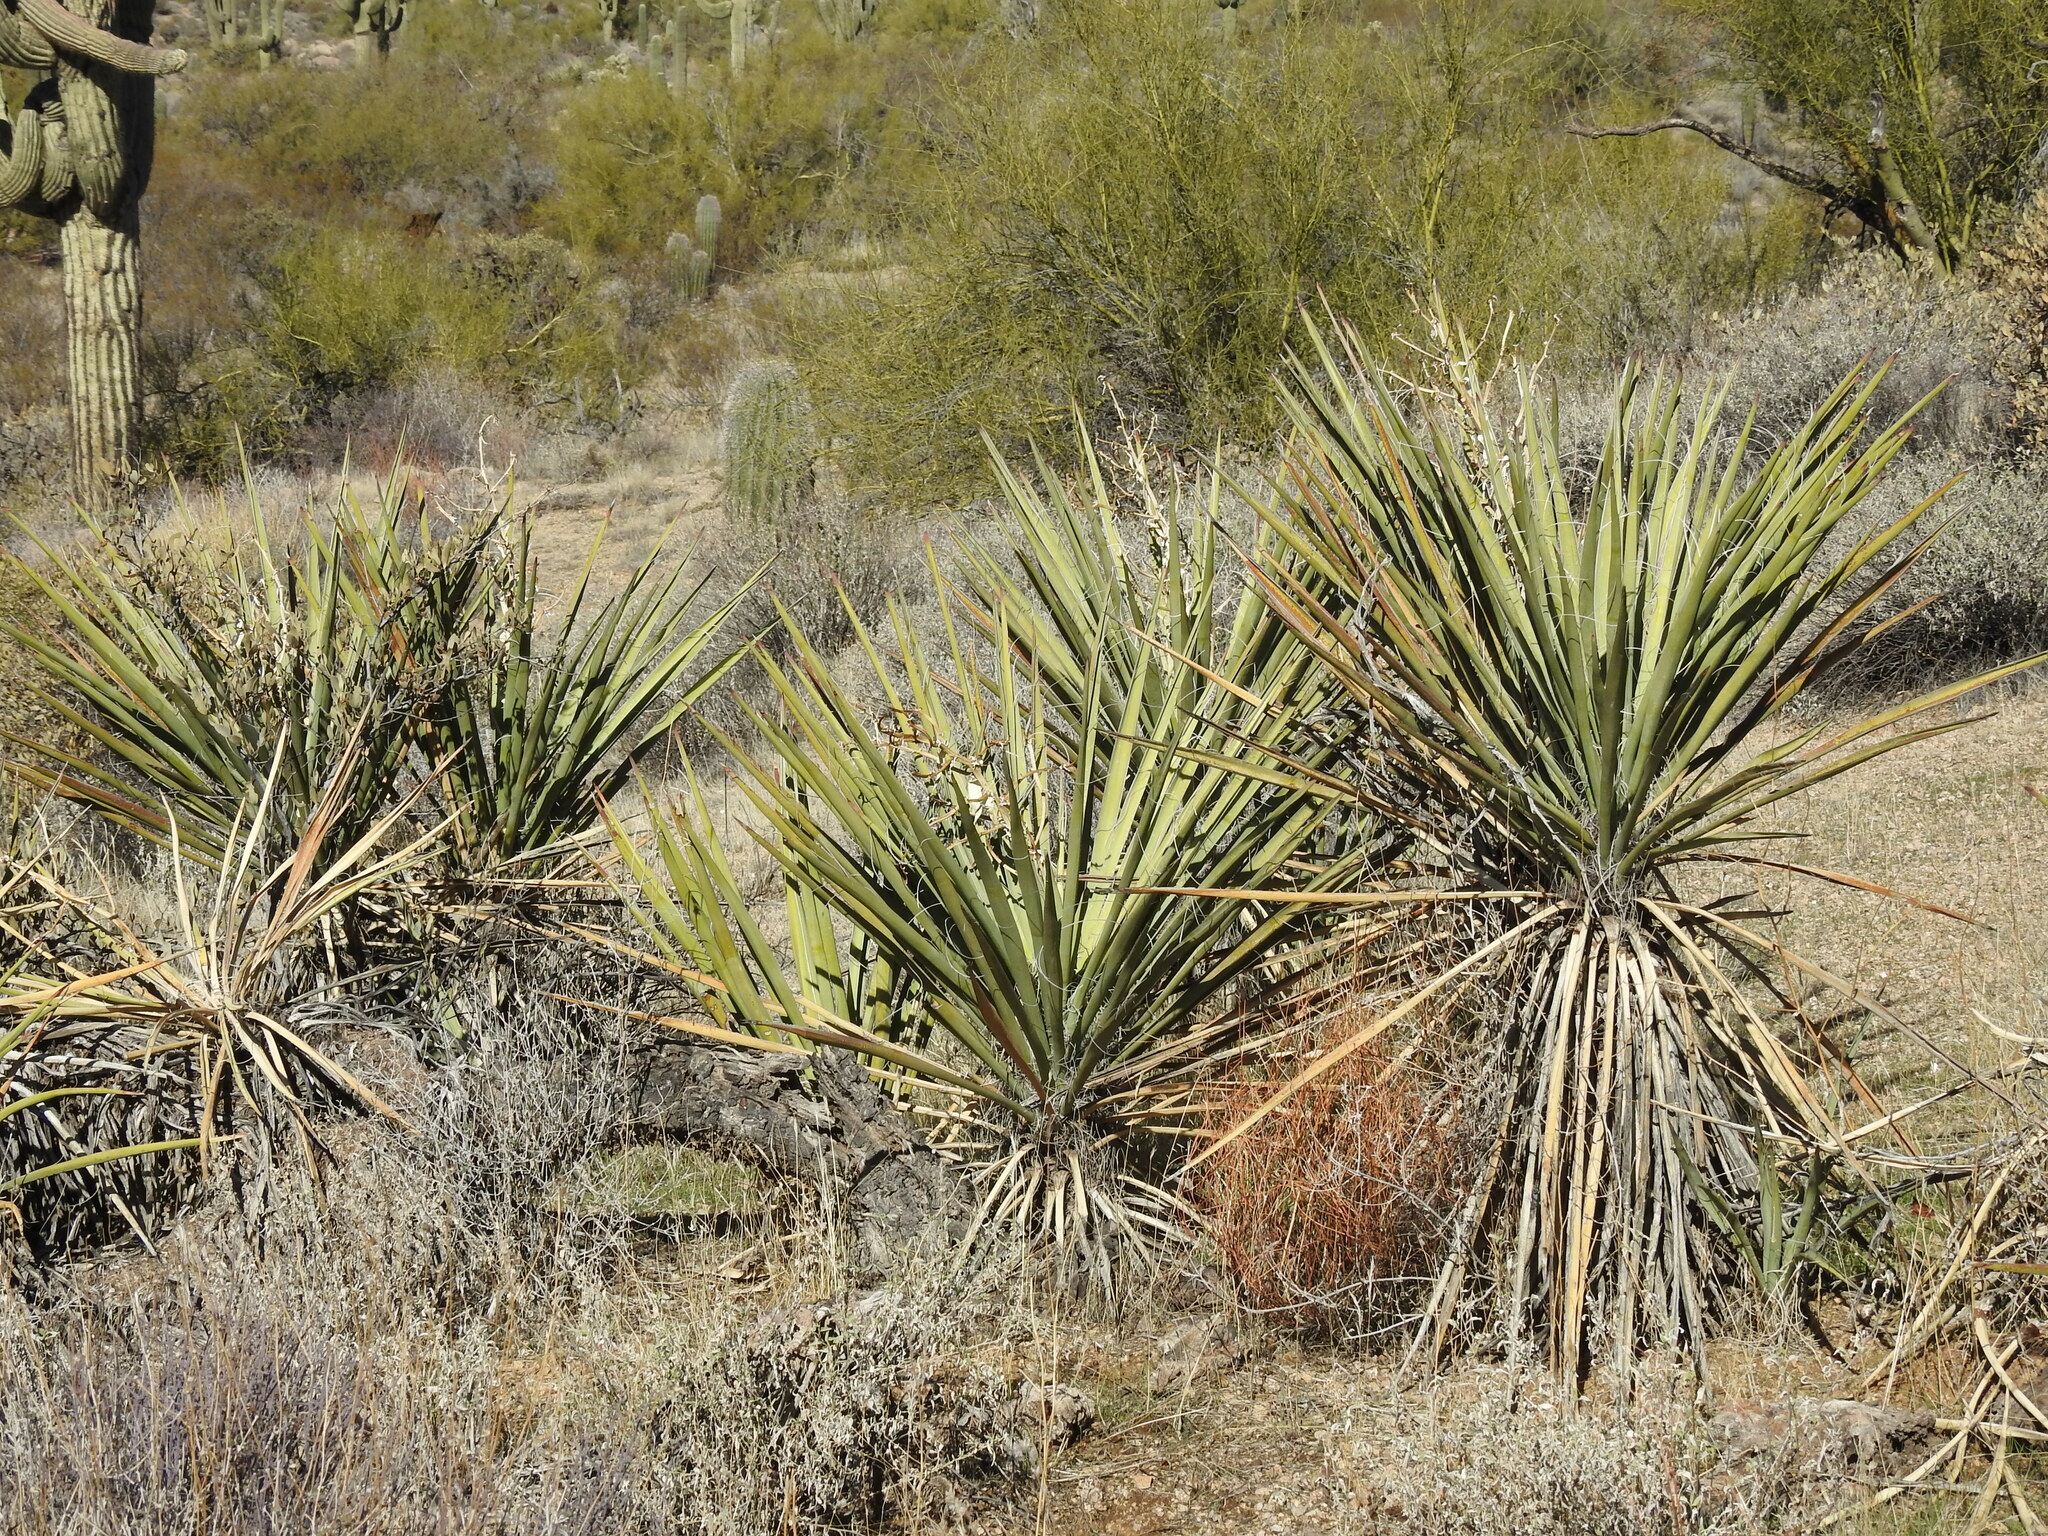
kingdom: Plantae
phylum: Tracheophyta
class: Liliopsida
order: Asparagales
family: Asparagaceae
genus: Yucca
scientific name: Yucca baccata
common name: Banana yucca
